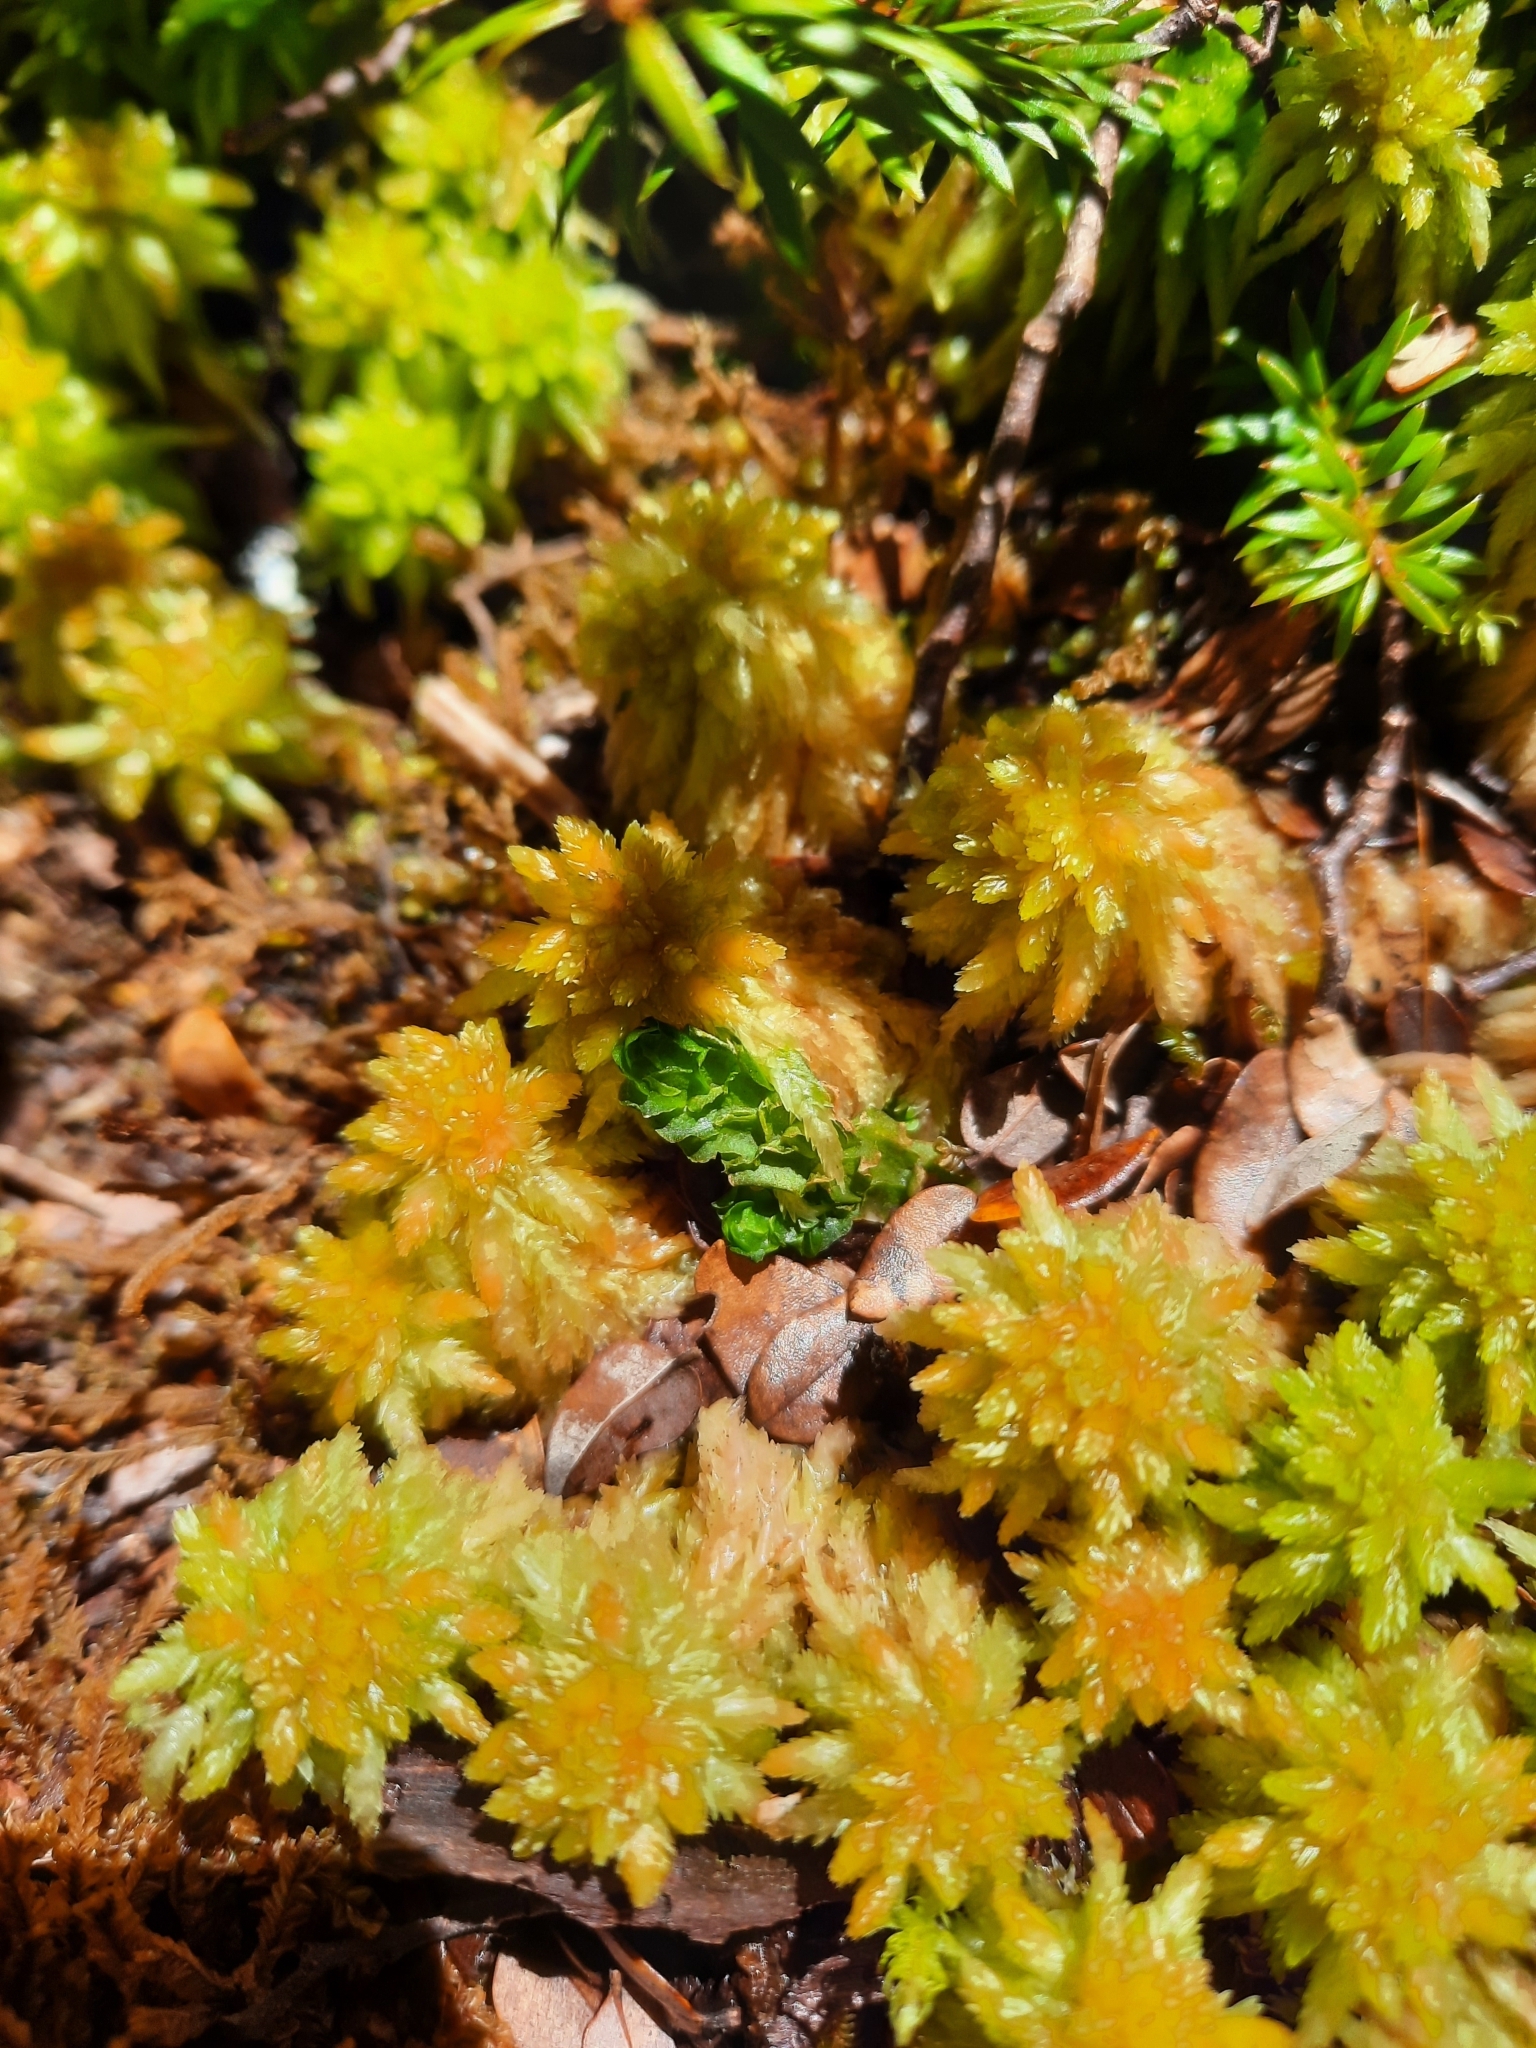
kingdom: Plantae
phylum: Marchantiophyta
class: Haplomitriopsida
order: Treubiales
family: Treubiaceae
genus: Treubia
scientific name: Treubia pygmaea
